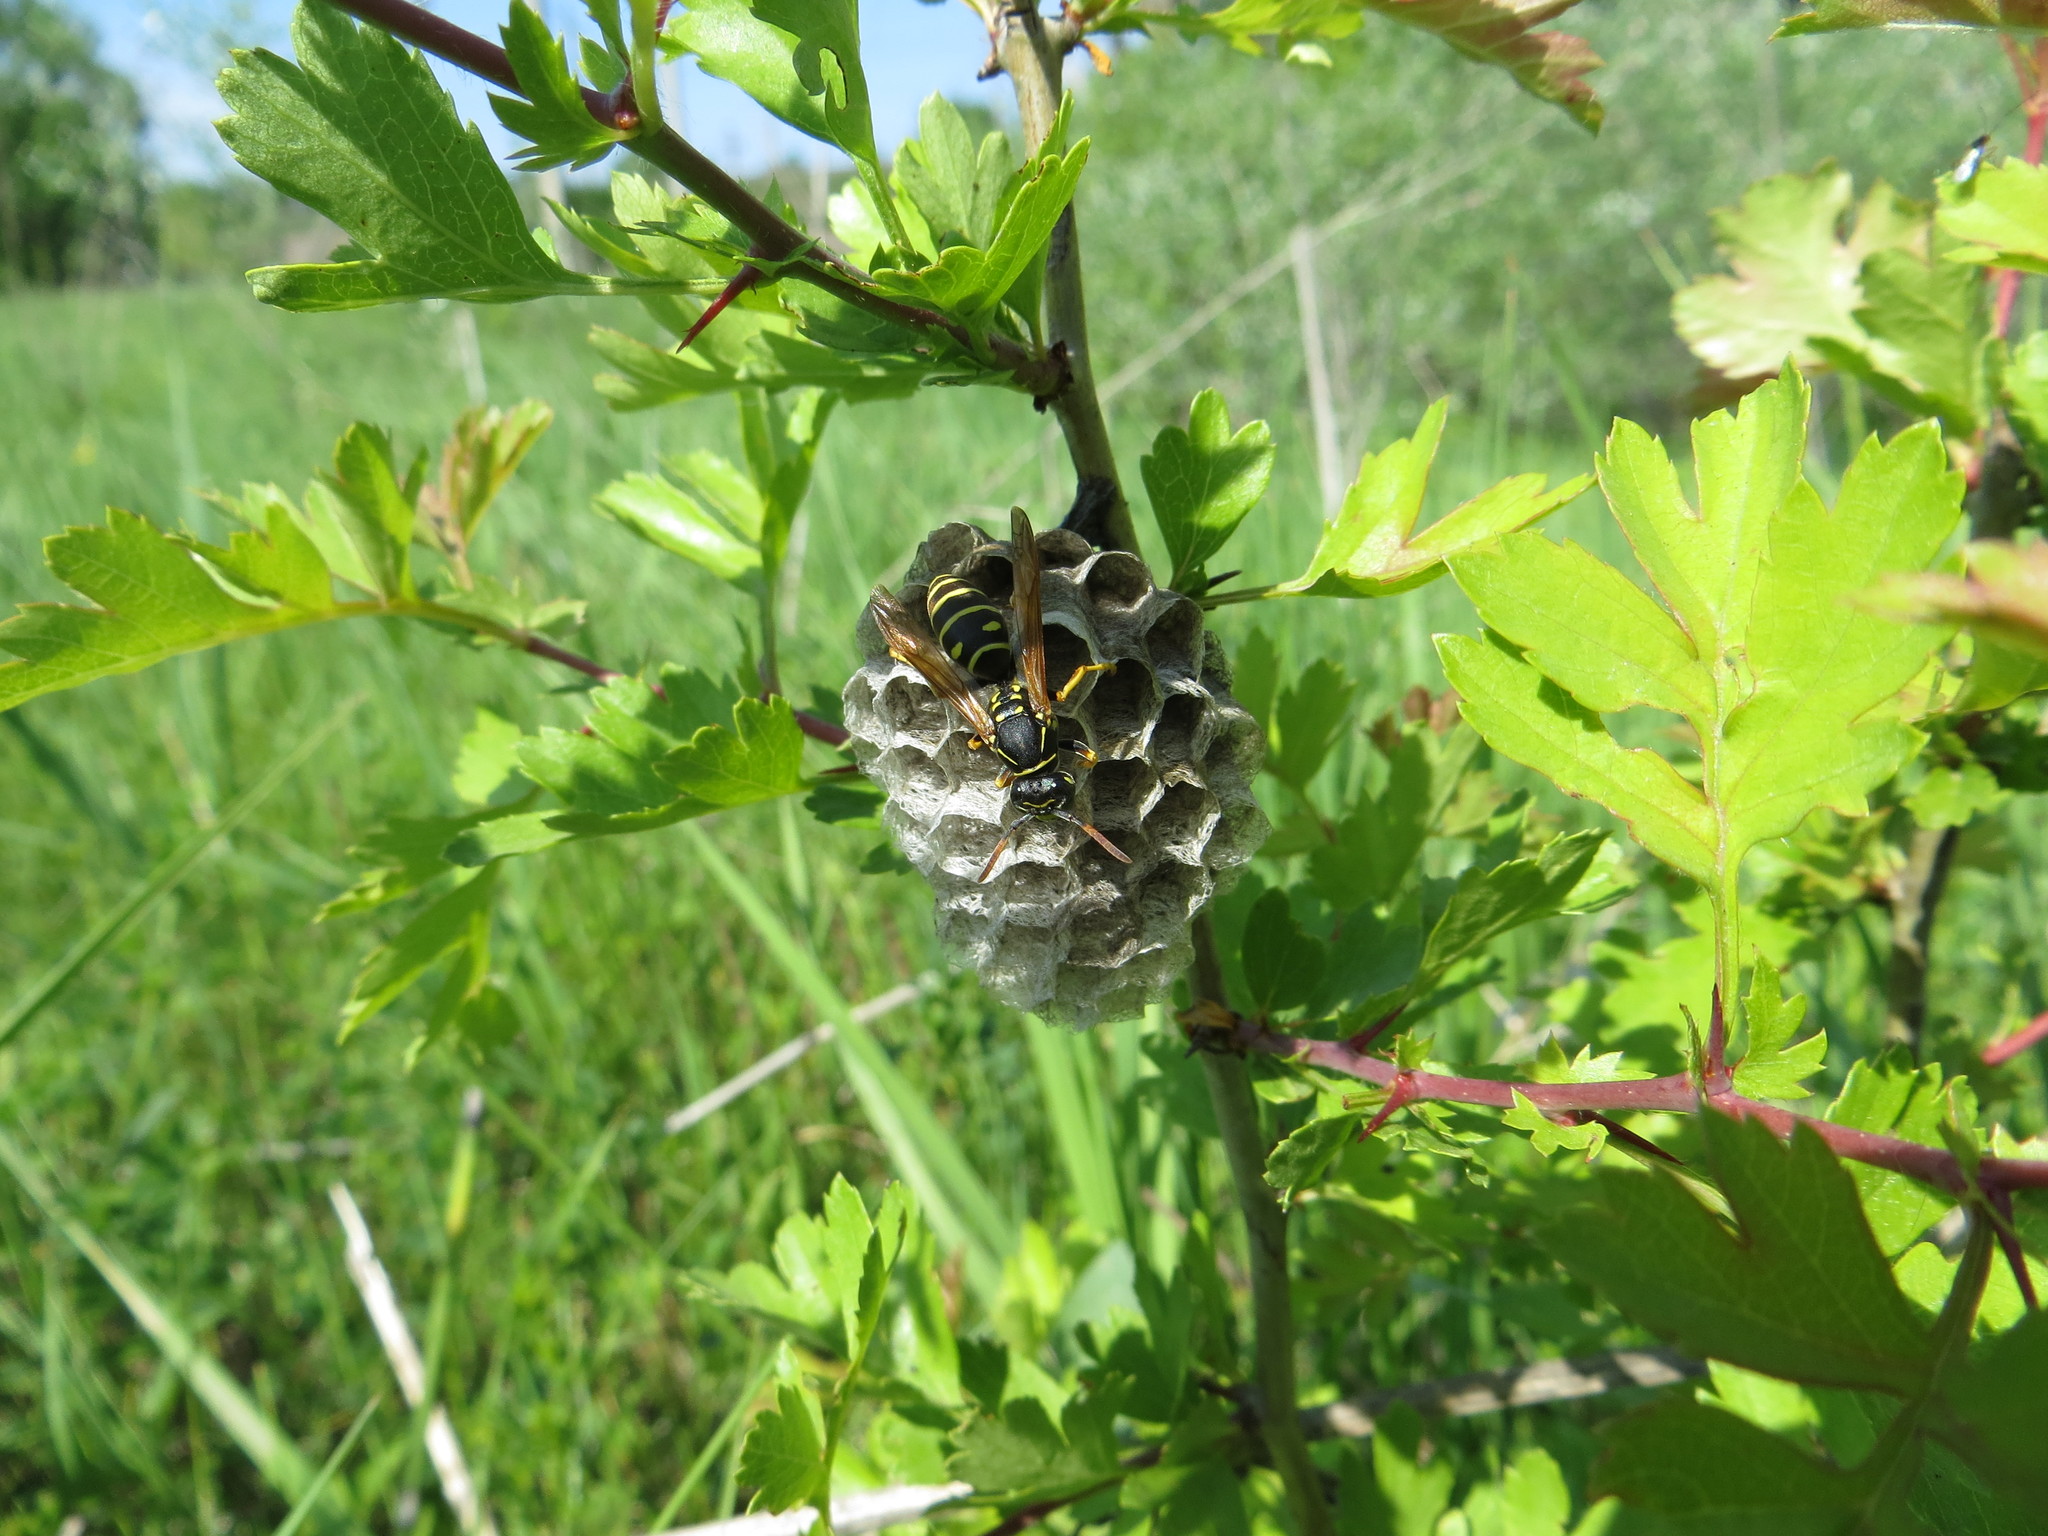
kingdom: Animalia
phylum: Arthropoda
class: Insecta
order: Hymenoptera
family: Eumenidae
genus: Polistes
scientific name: Polistes nimpha
